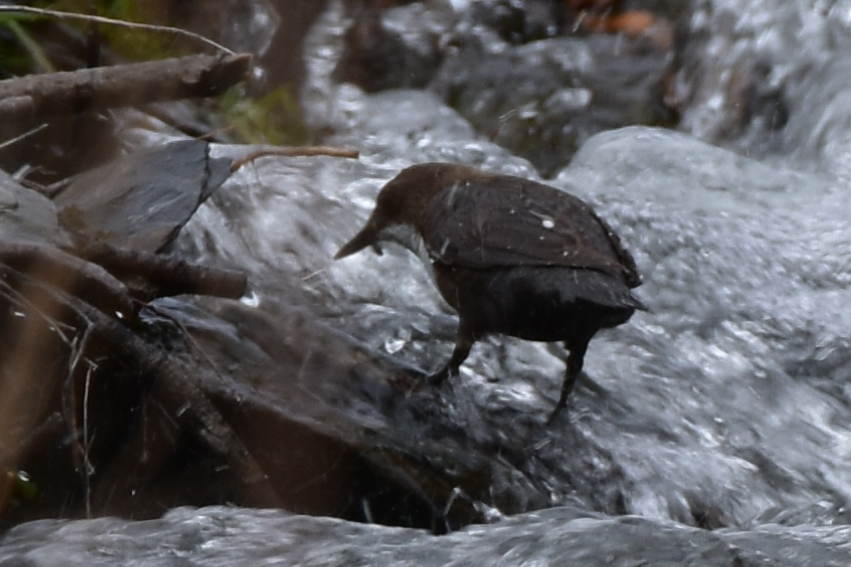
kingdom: Animalia
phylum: Chordata
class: Aves
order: Passeriformes
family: Cinclidae
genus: Cinclus
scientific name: Cinclus cinclus
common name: White-throated dipper
